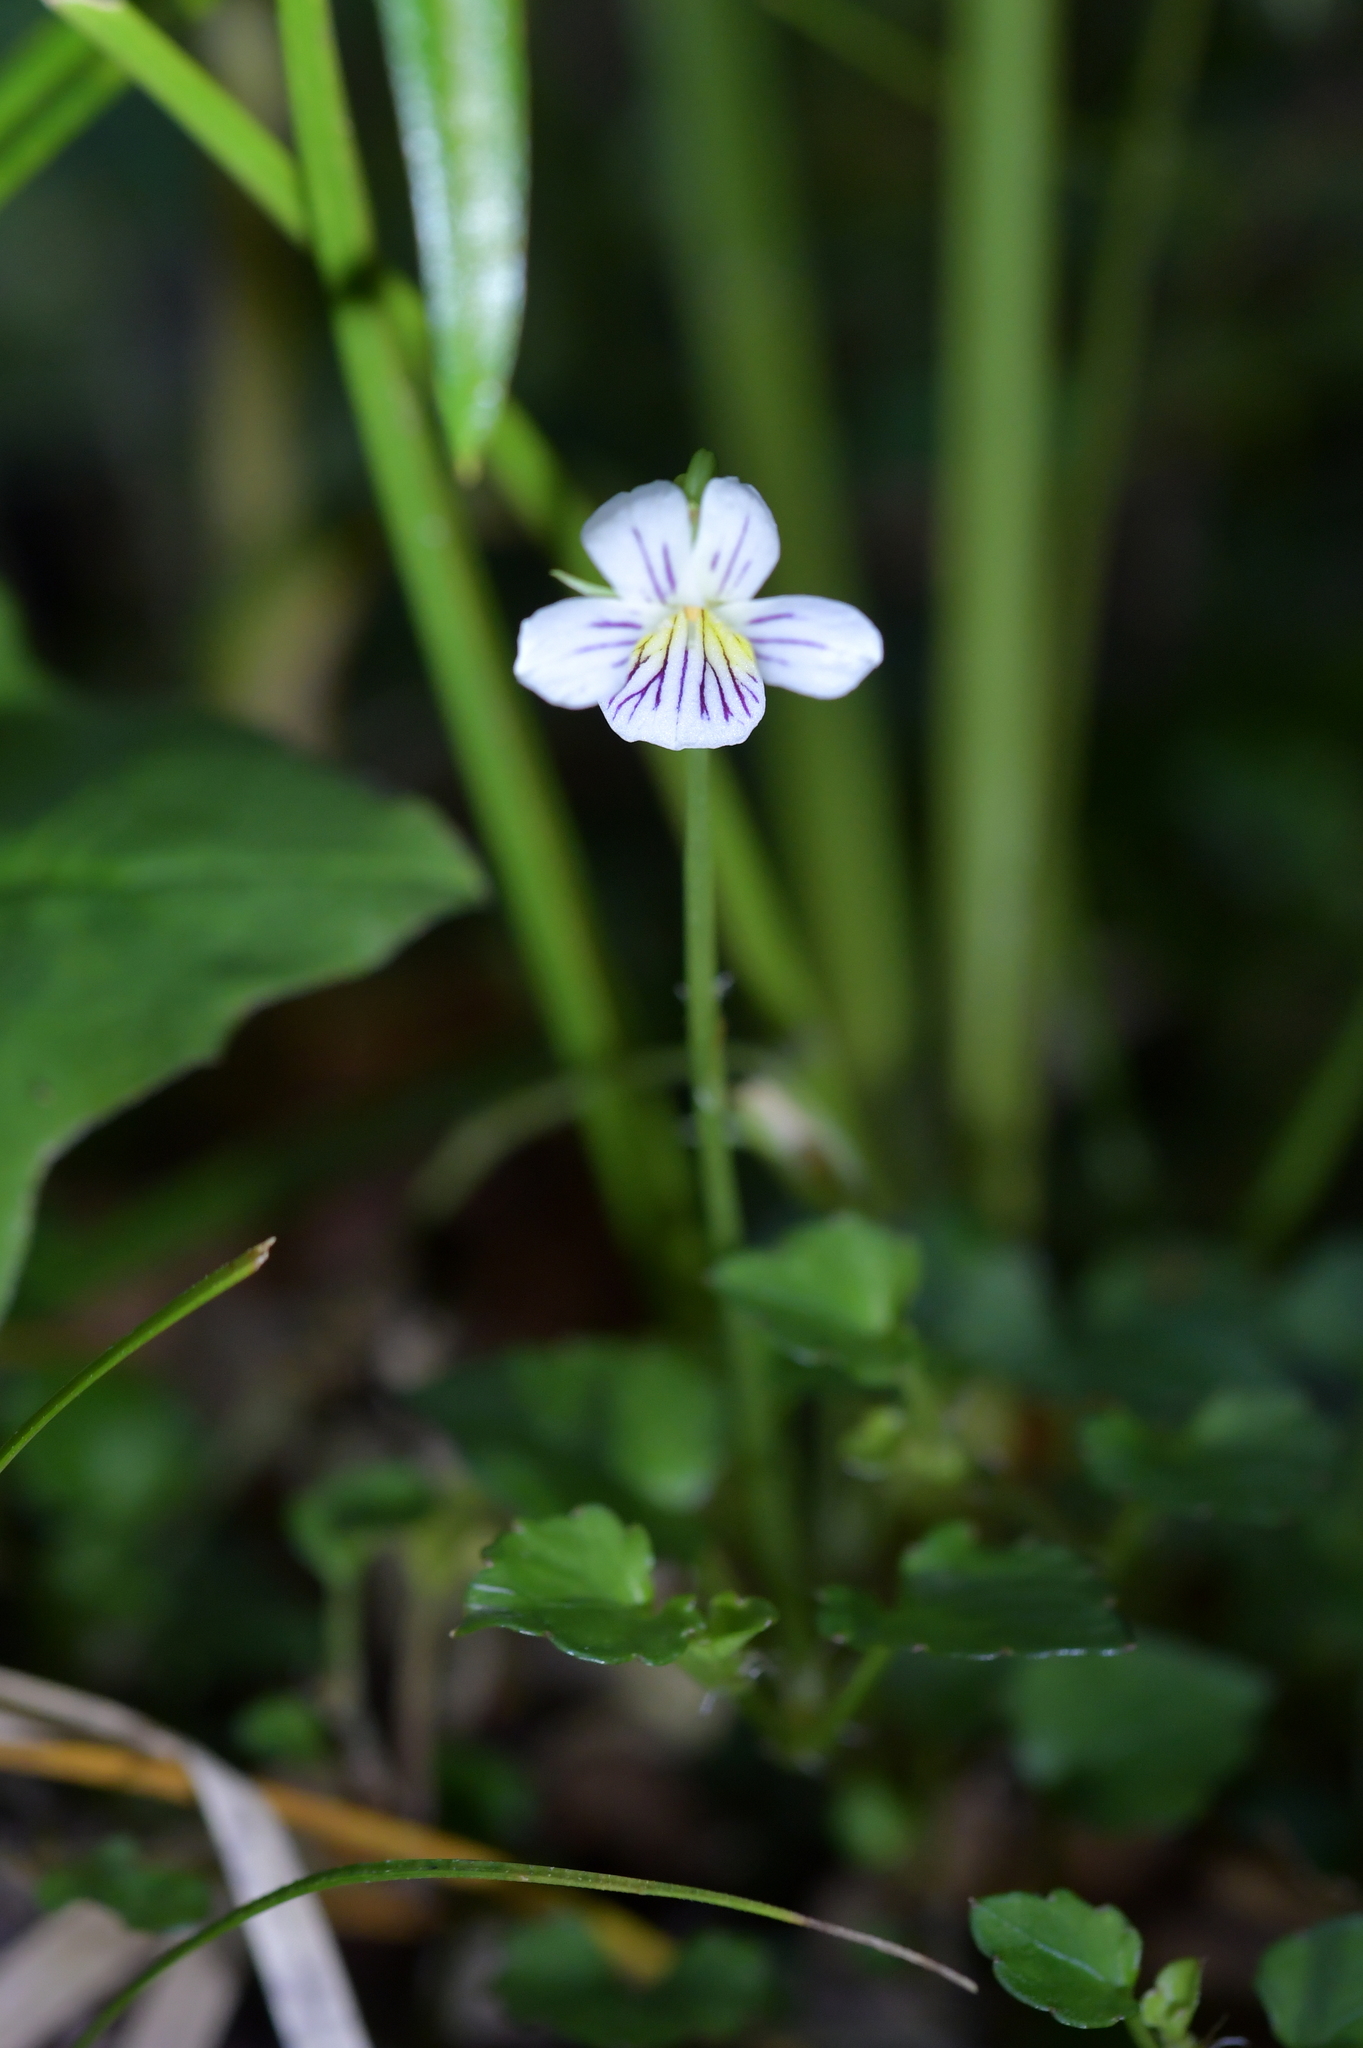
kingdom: Plantae
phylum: Tracheophyta
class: Magnoliopsida
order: Malpighiales
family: Violaceae
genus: Viola
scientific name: Viola filicaulis
